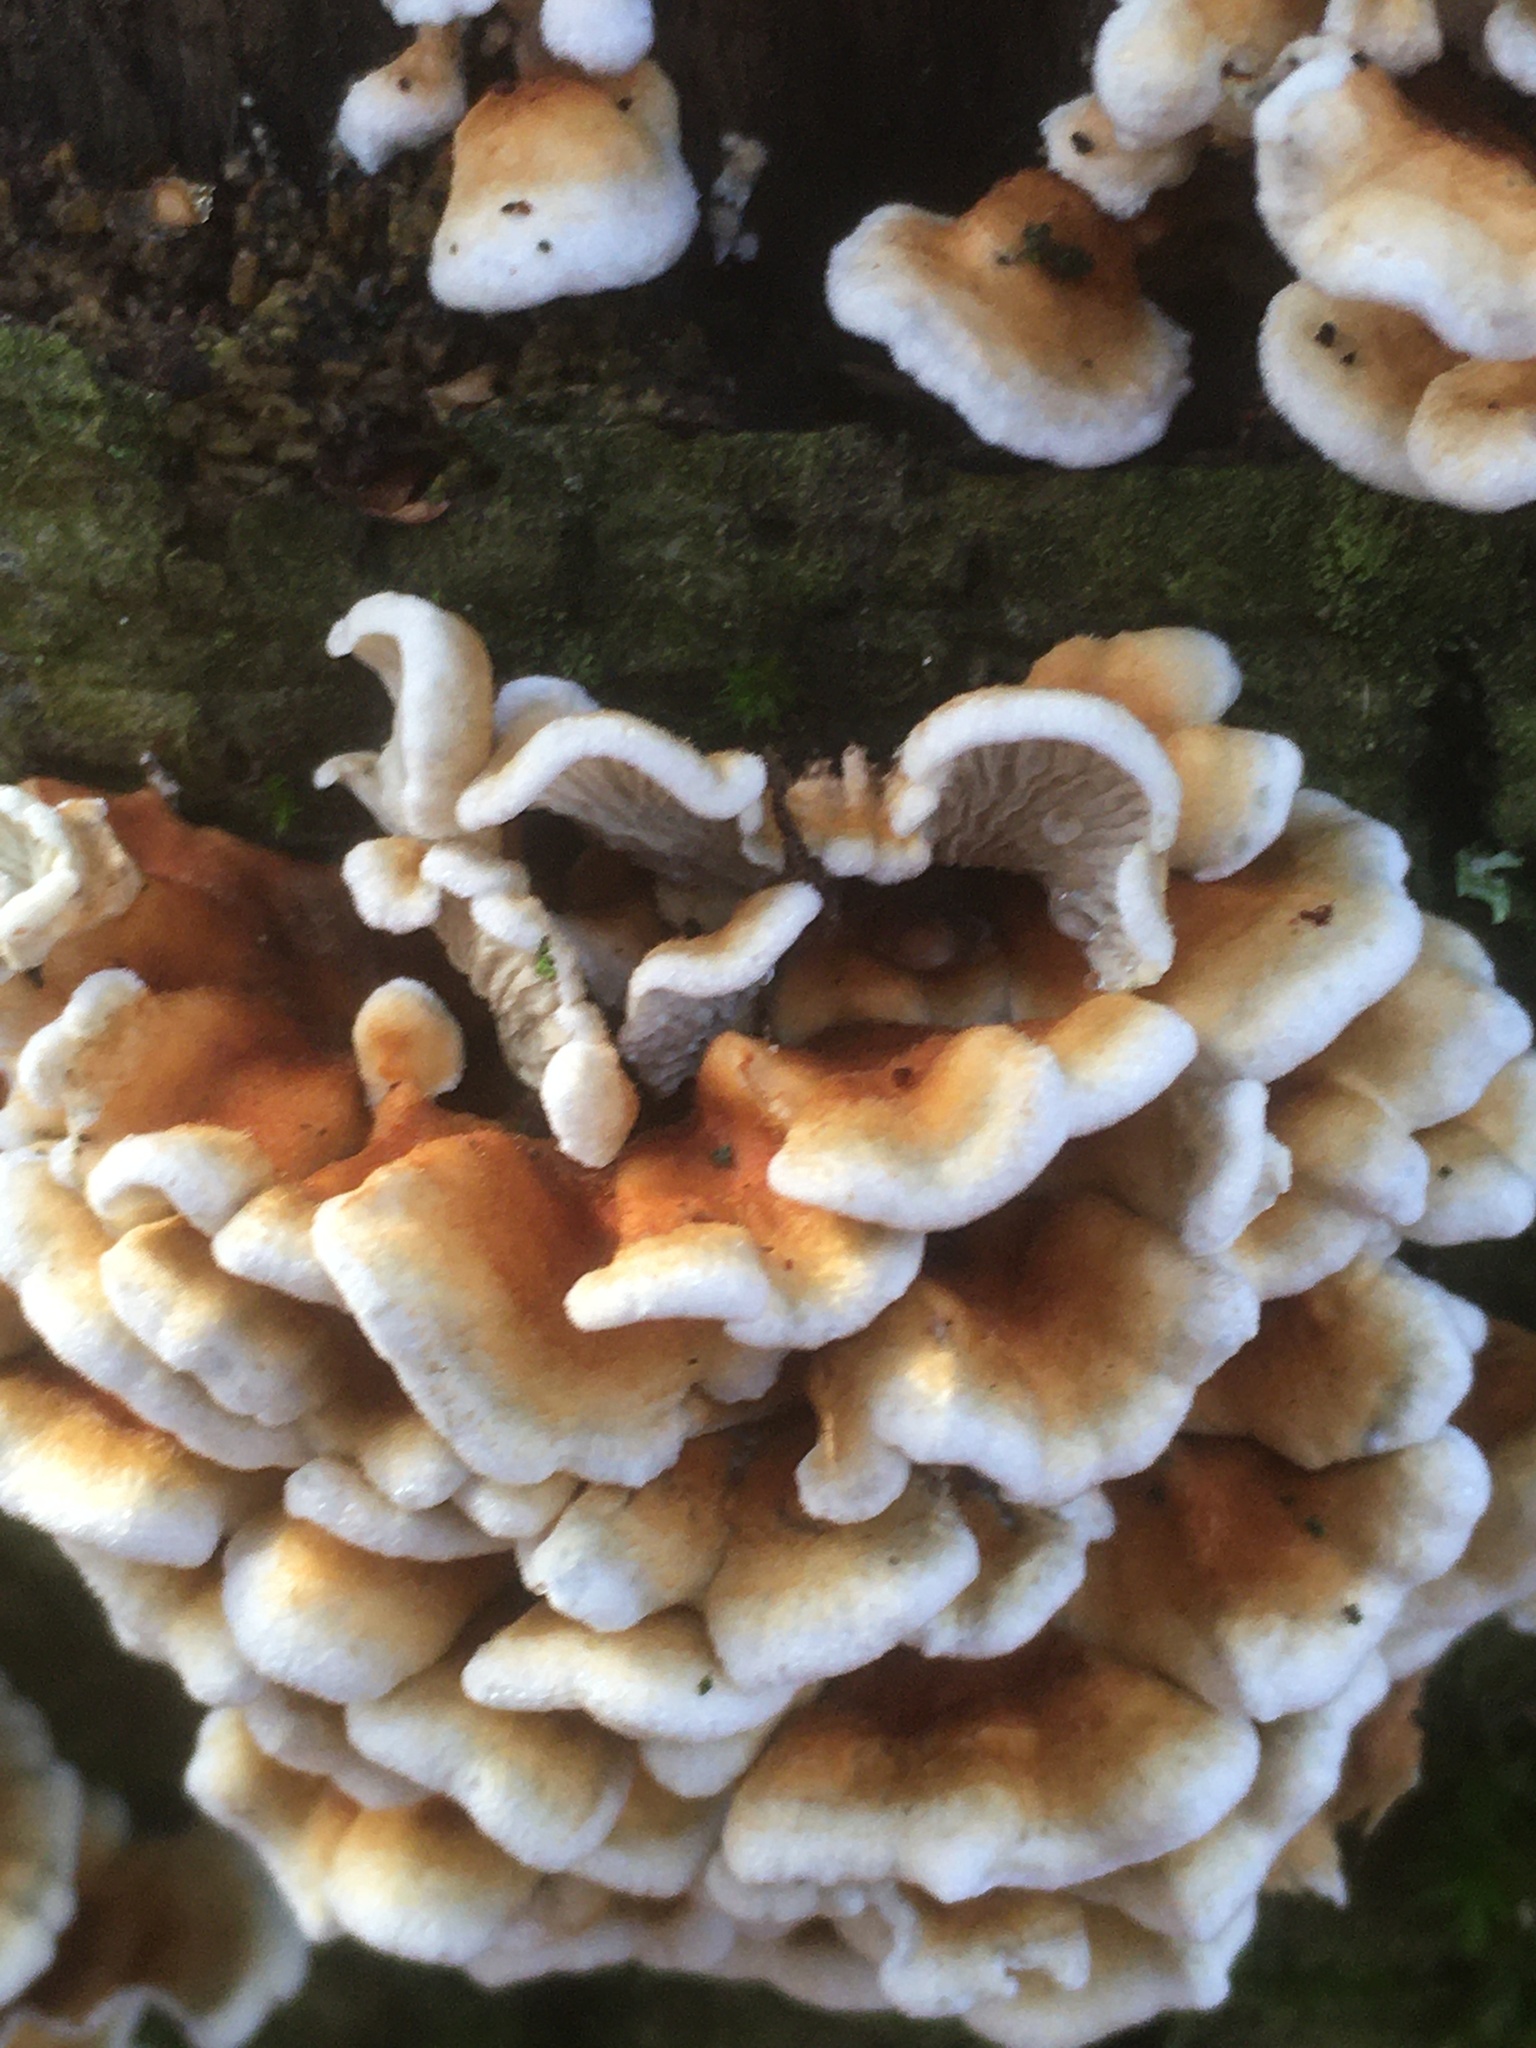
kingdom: Fungi
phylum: Basidiomycota
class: Agaricomycetes
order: Amylocorticiales
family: Amylocorticiaceae
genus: Plicaturopsis
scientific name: Plicaturopsis crispa
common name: Crimped gill
